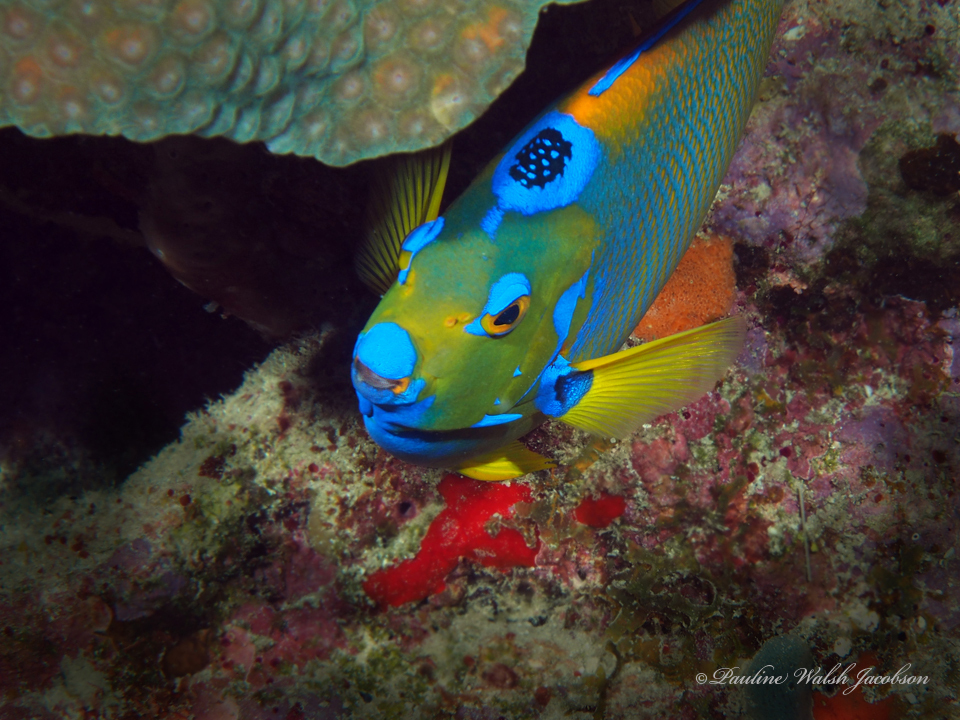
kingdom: Animalia
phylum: Chordata
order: Perciformes
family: Pomacanthidae
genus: Holacanthus
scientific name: Holacanthus ciliaris
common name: Queen angelfish
